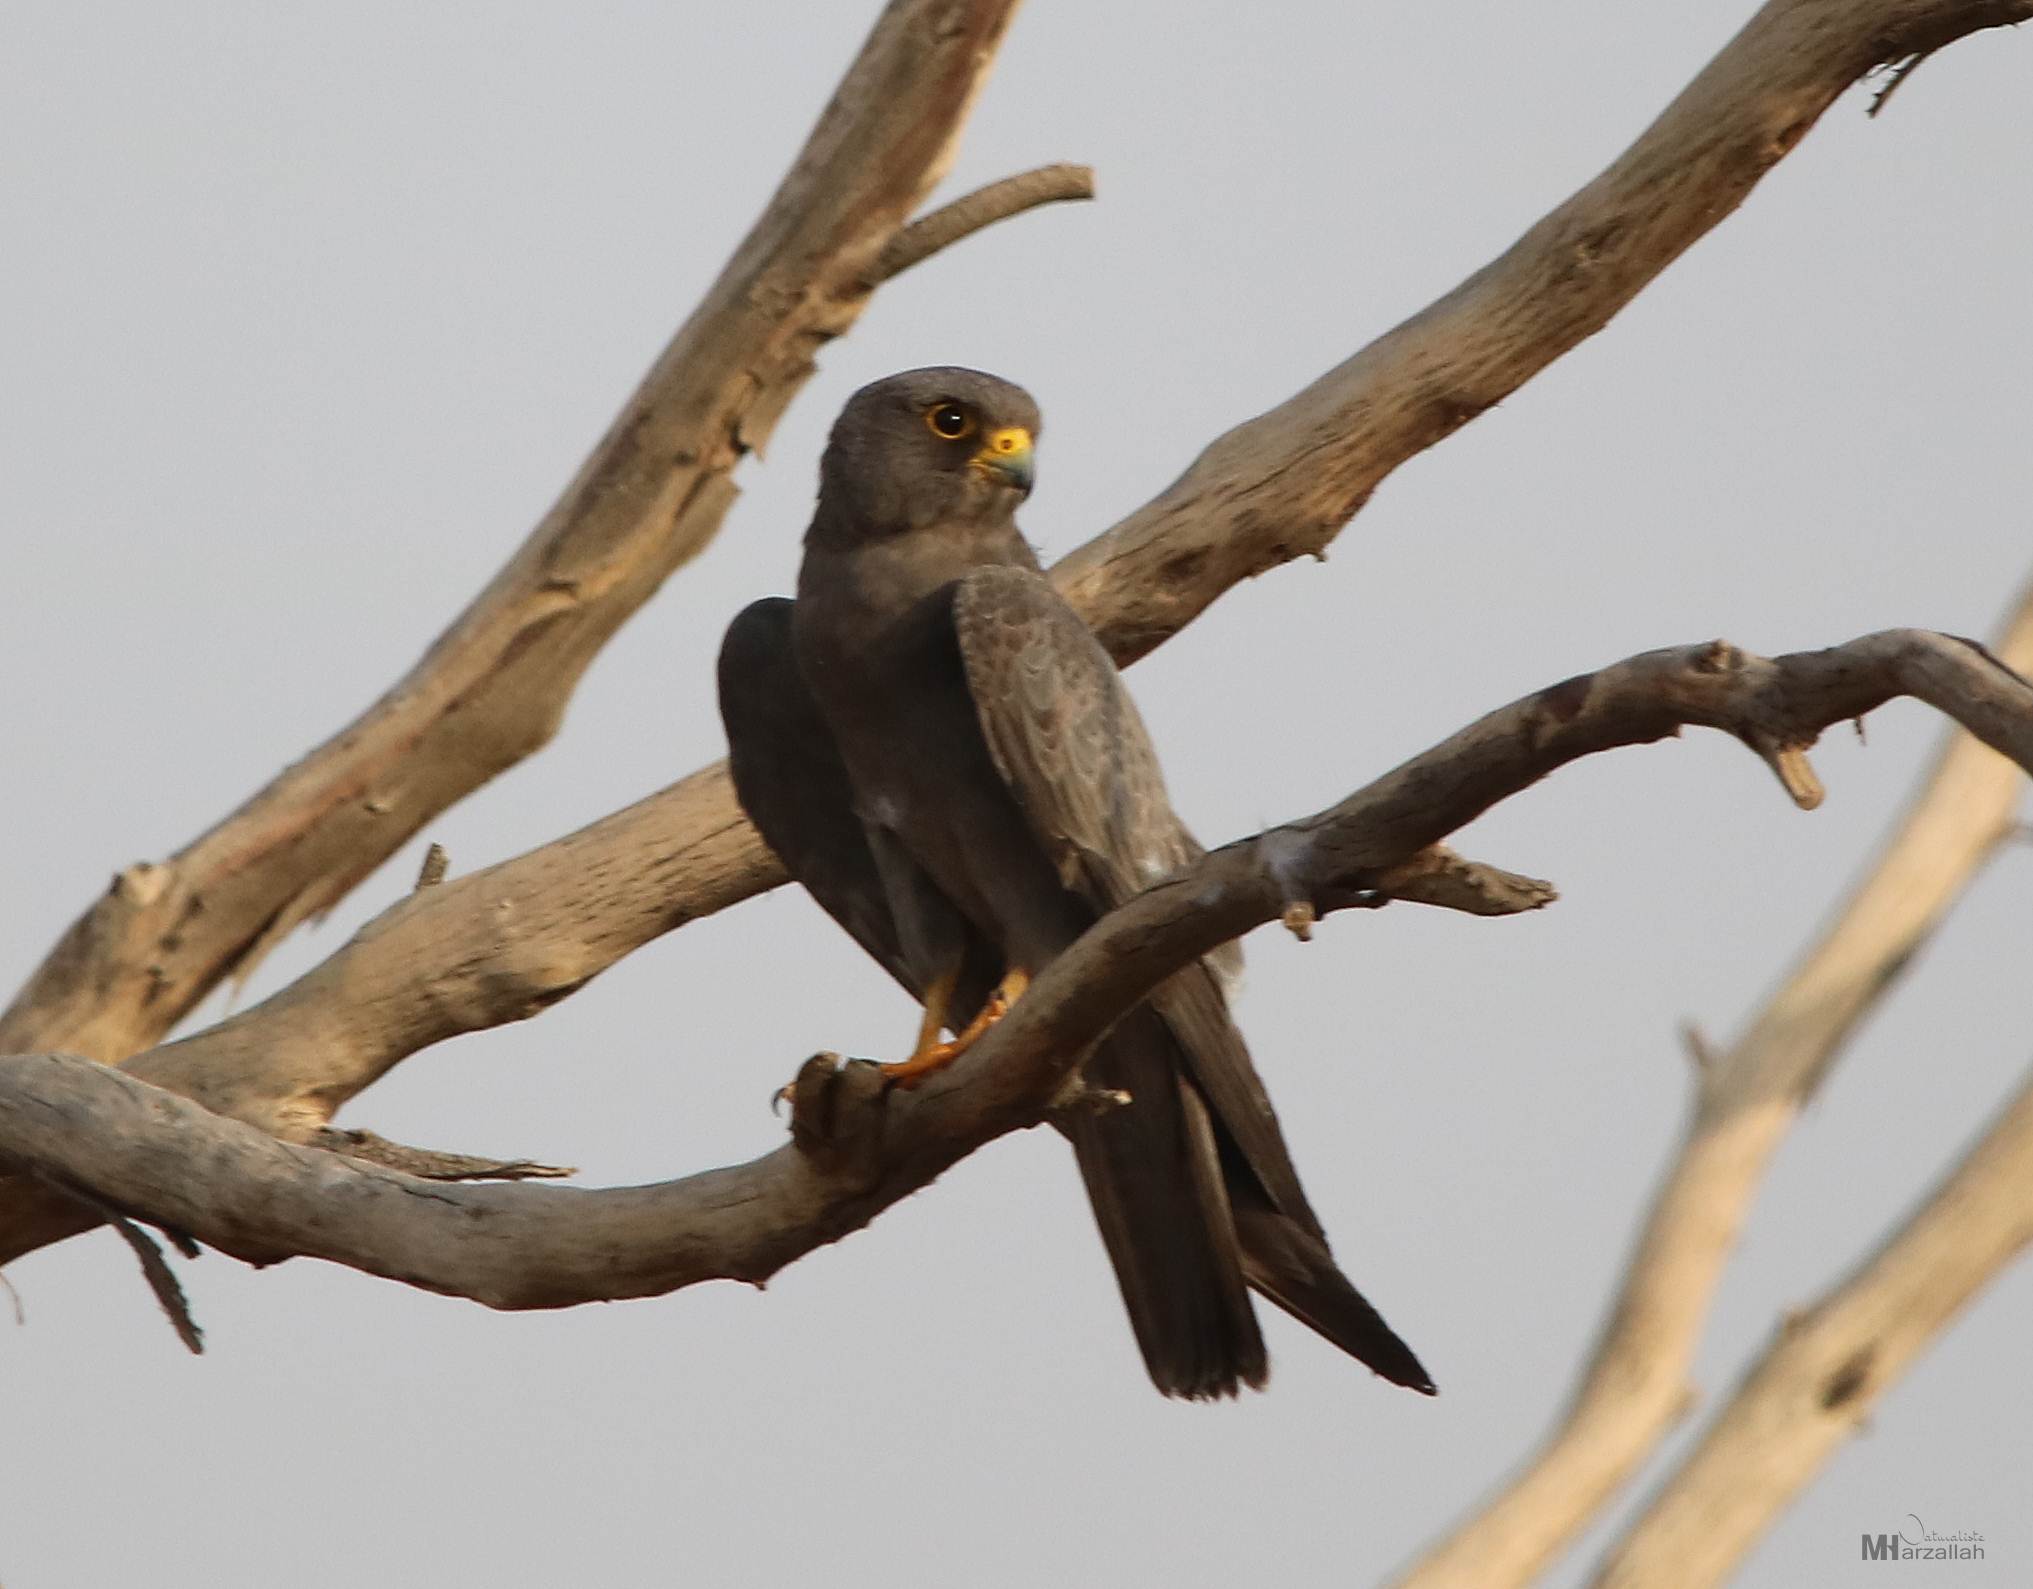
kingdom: Animalia
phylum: Chordata
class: Aves
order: Falconiformes
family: Falconidae
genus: Falco
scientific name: Falco concolor
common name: Sooty falcon
